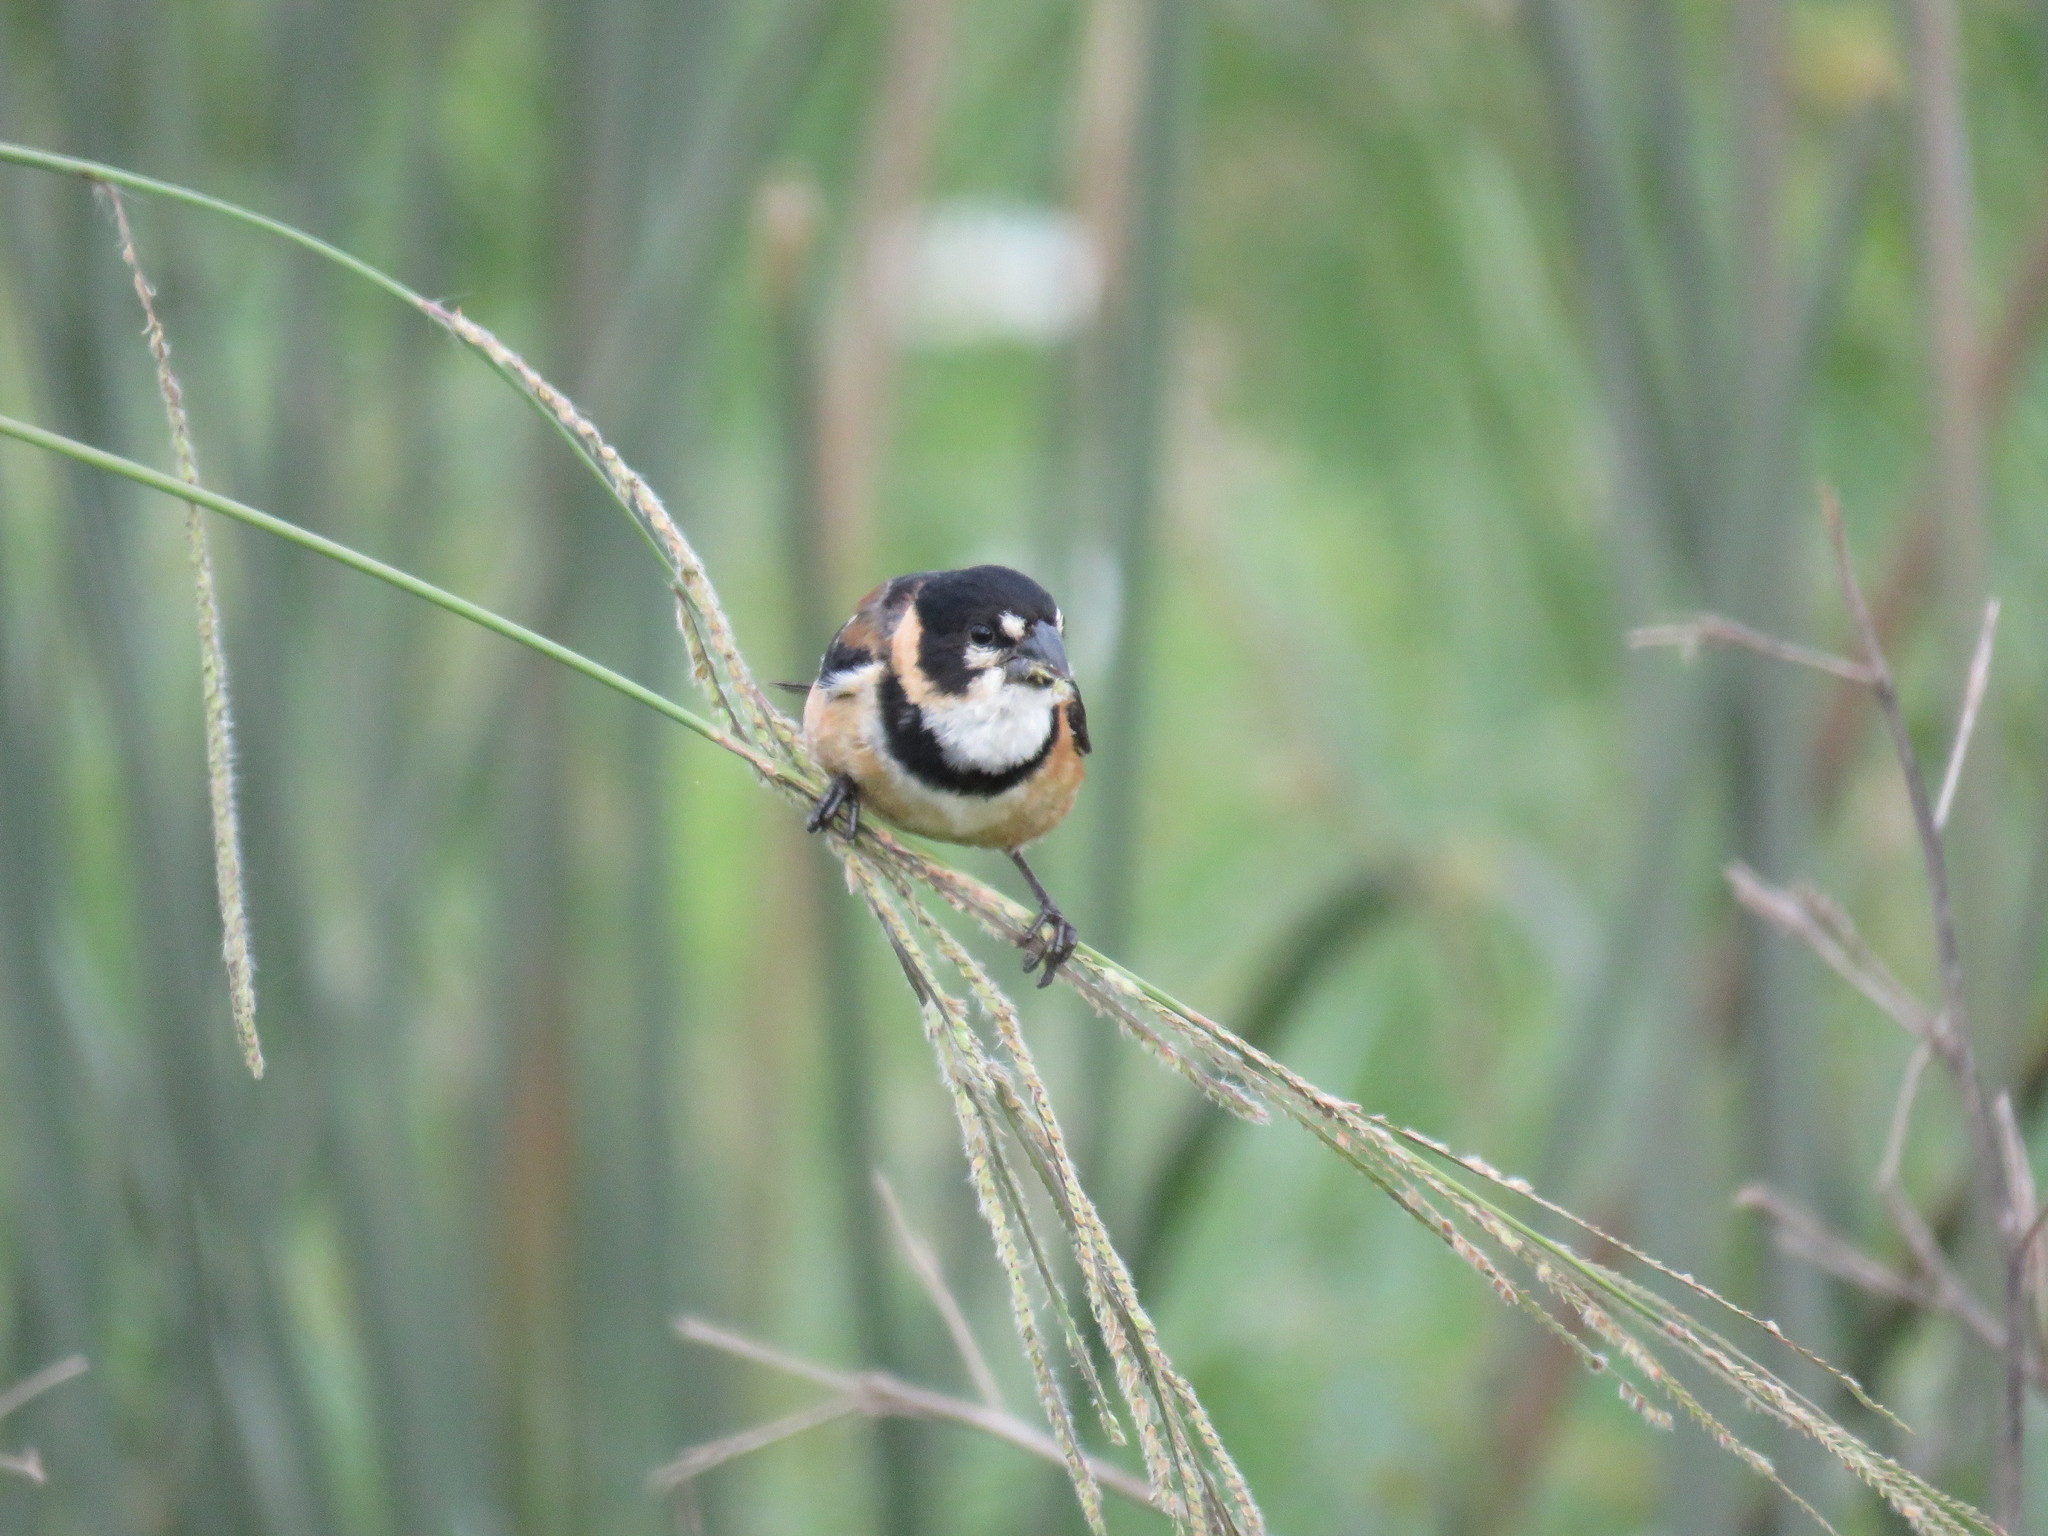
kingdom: Animalia
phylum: Chordata
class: Aves
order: Passeriformes
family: Thraupidae
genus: Sporophila
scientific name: Sporophila collaris
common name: Rusty-collared seedeater
